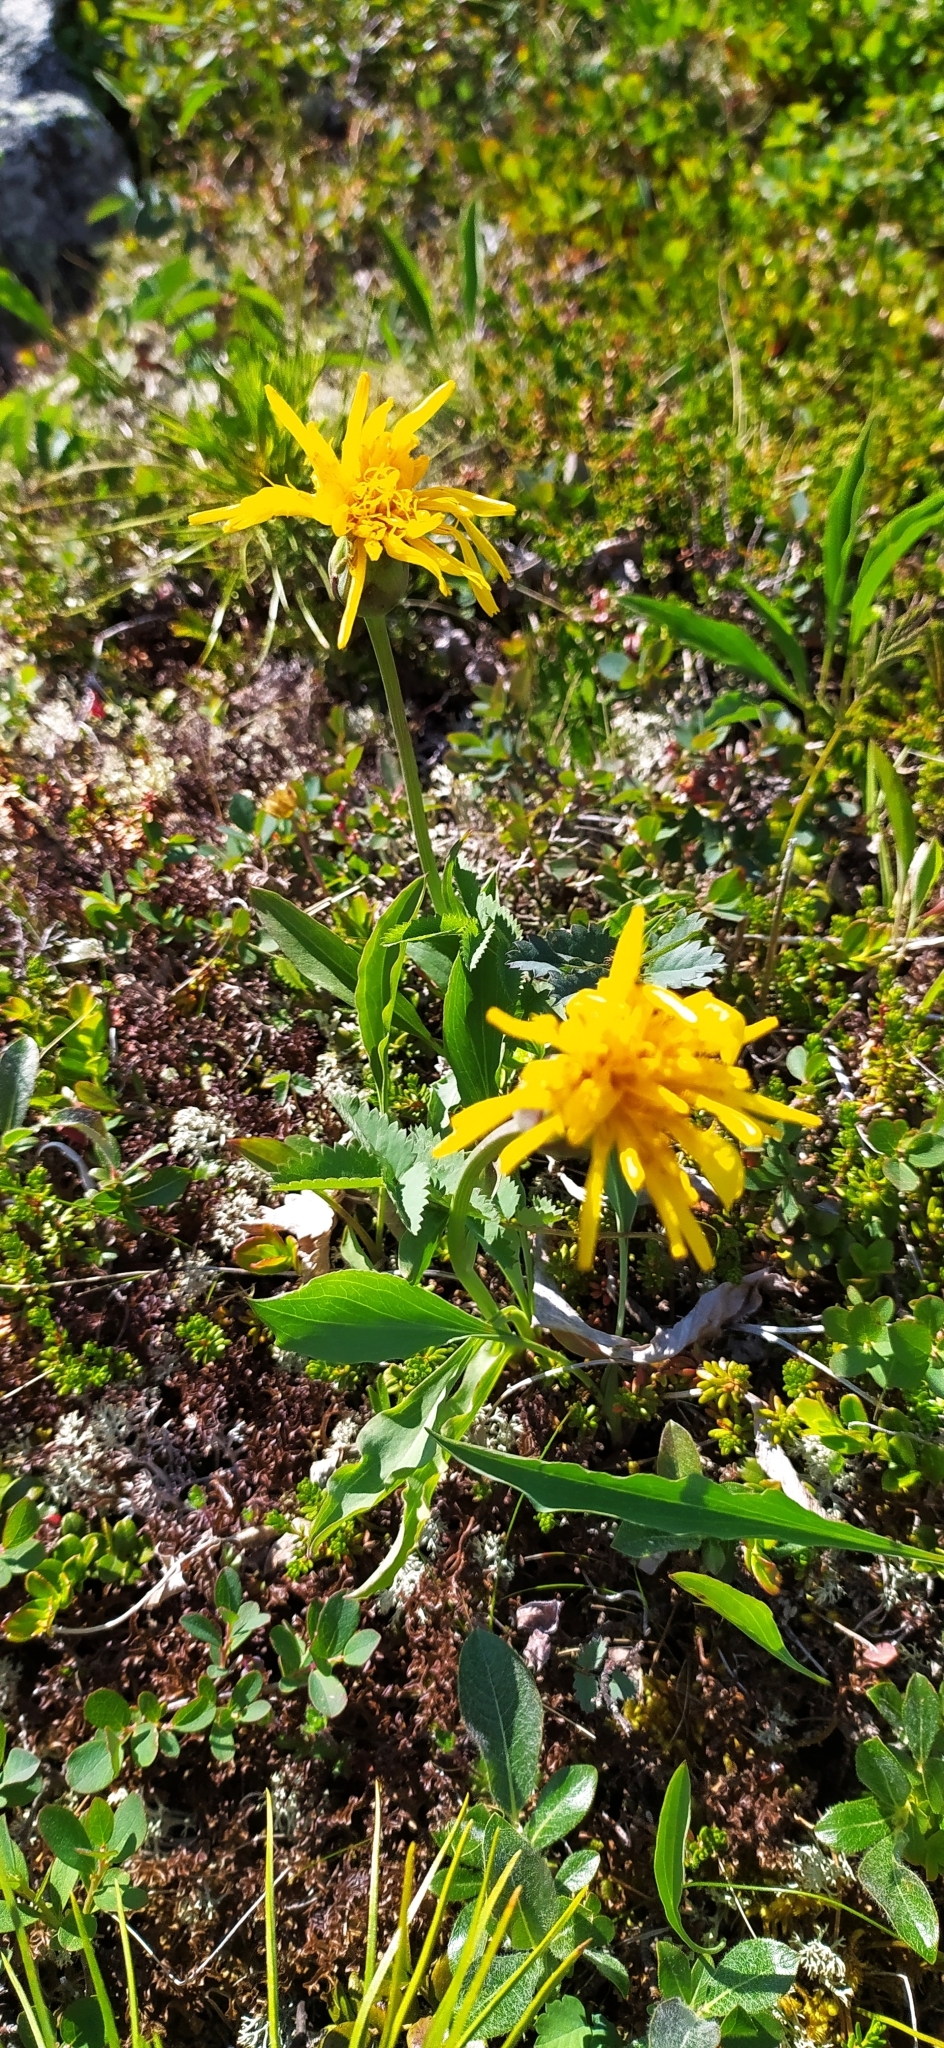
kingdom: Plantae
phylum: Tracheophyta
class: Magnoliopsida
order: Asterales
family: Asteraceae
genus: Scorzonera
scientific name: Scorzonera glabra
